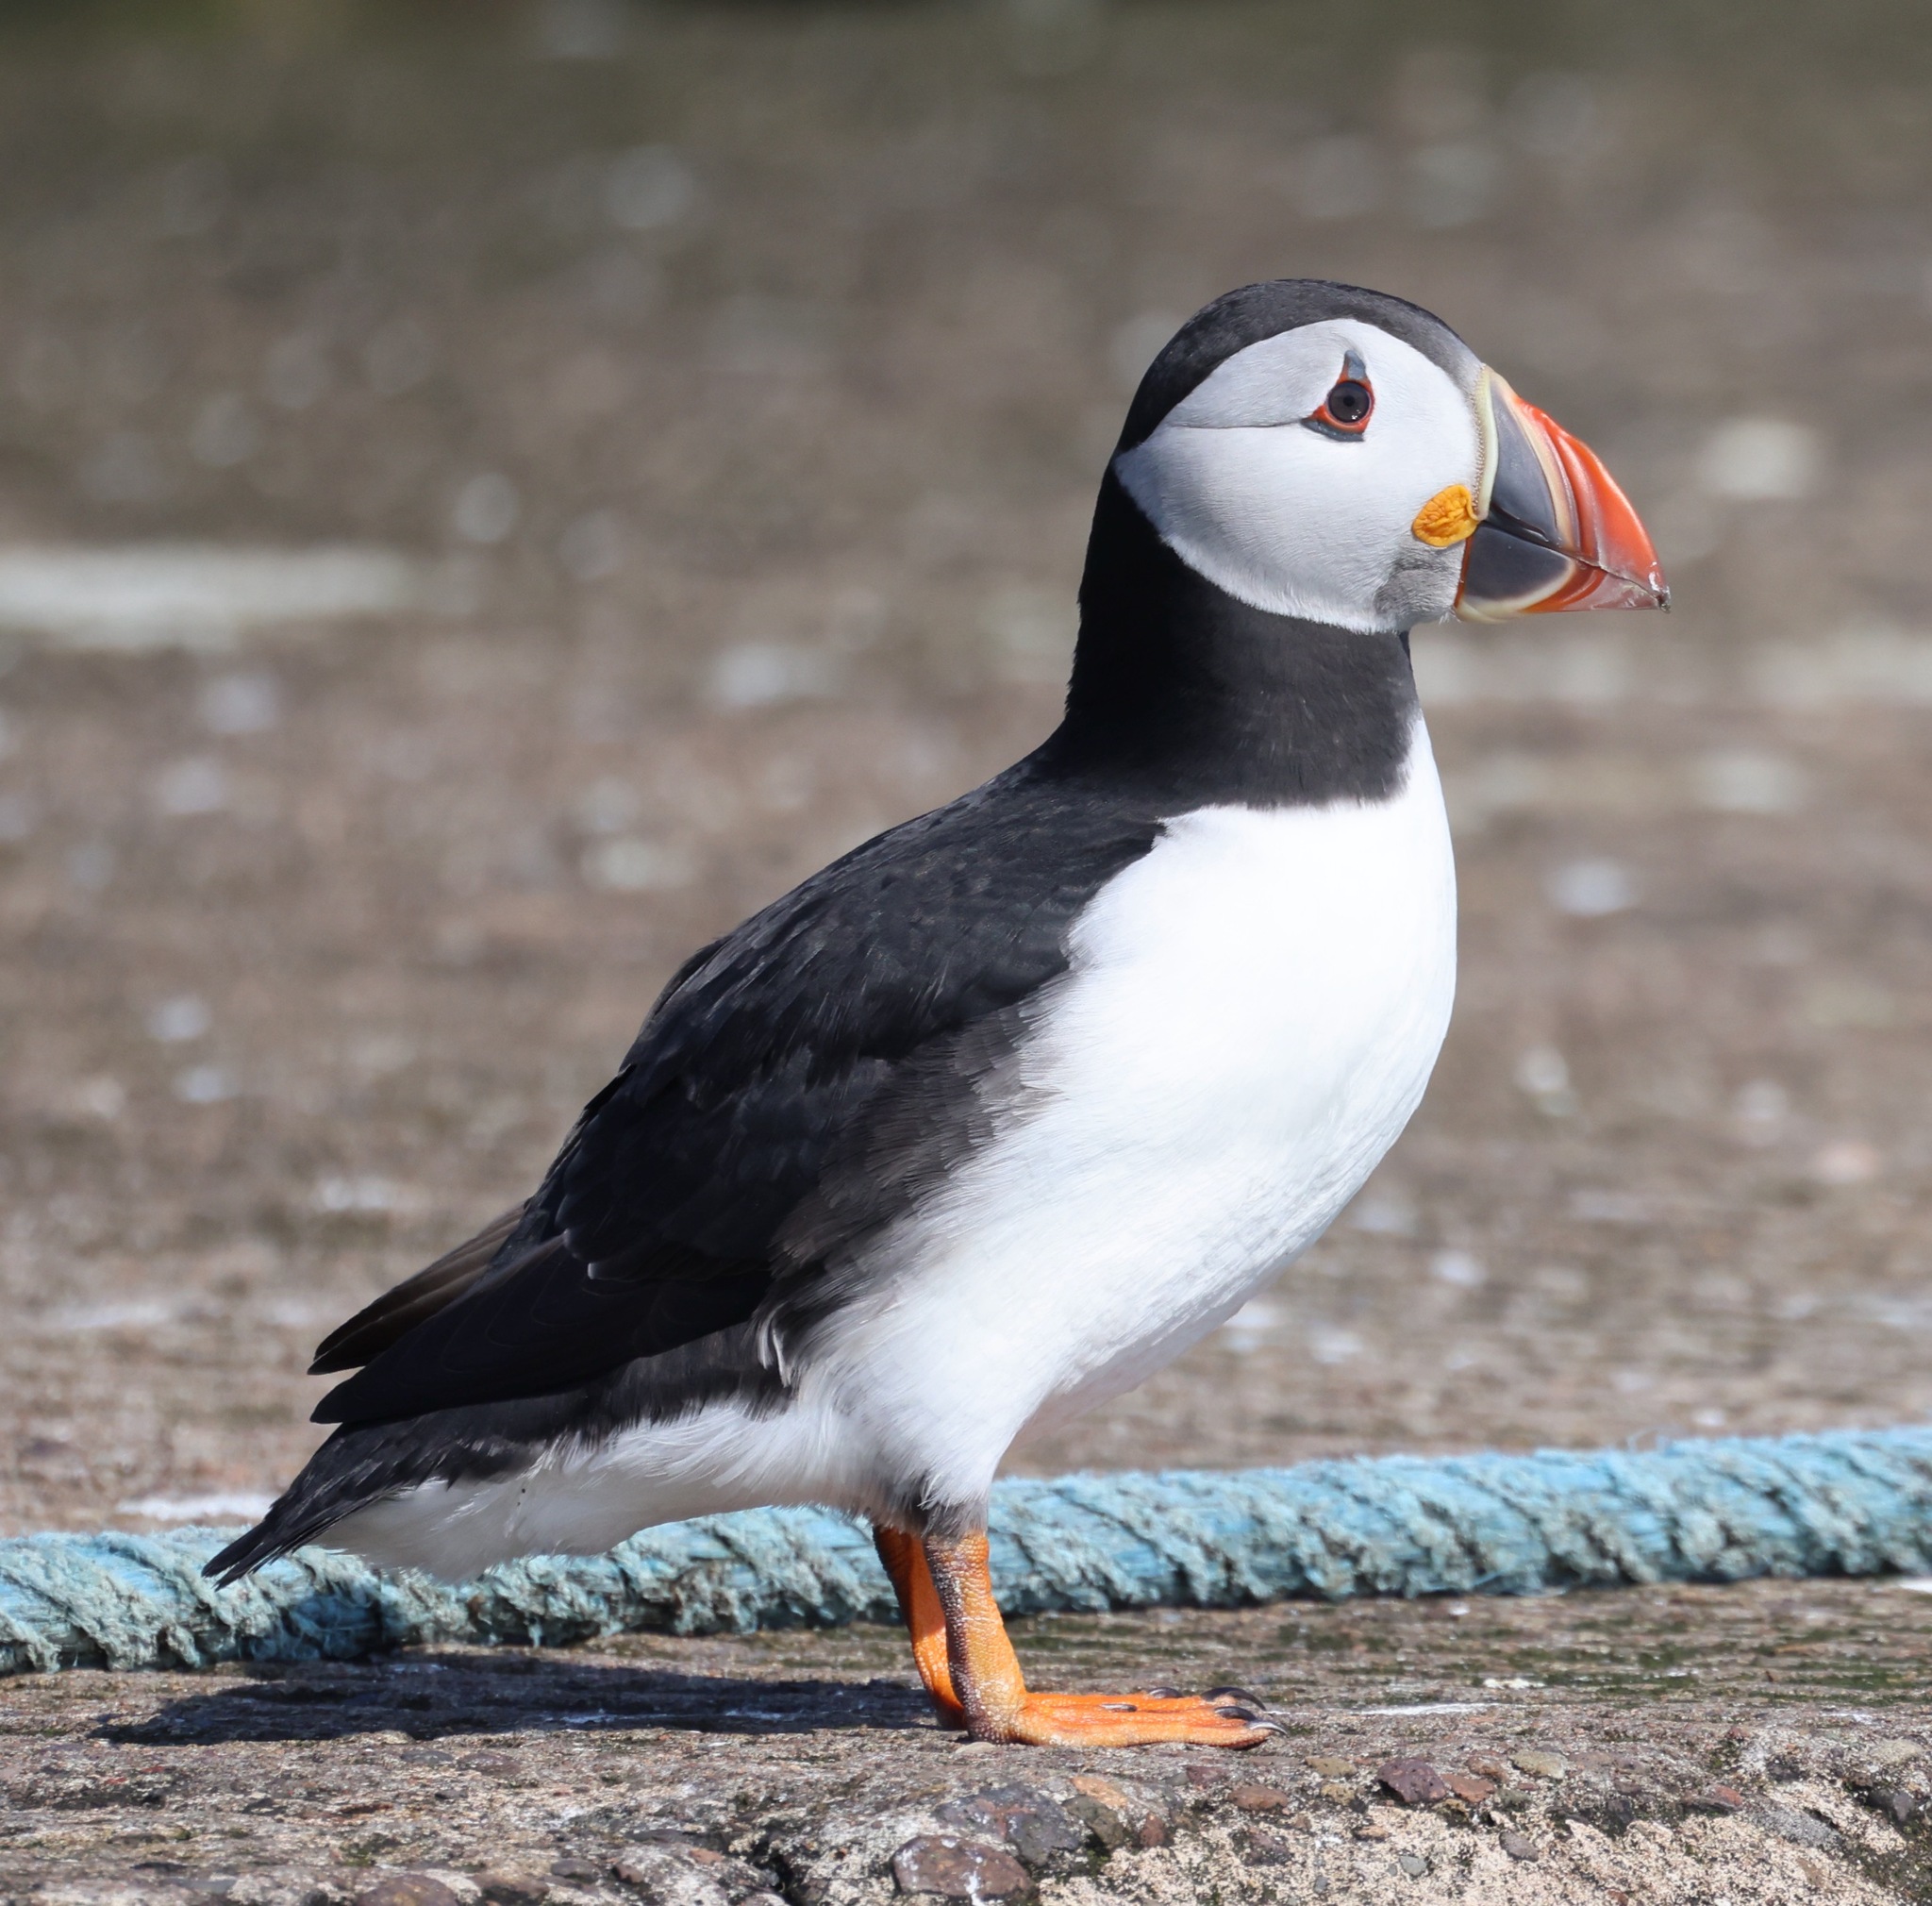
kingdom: Animalia
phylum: Chordata
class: Aves
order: Charadriiformes
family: Alcidae
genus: Fratercula
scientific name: Fratercula arctica
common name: Atlantic puffin
